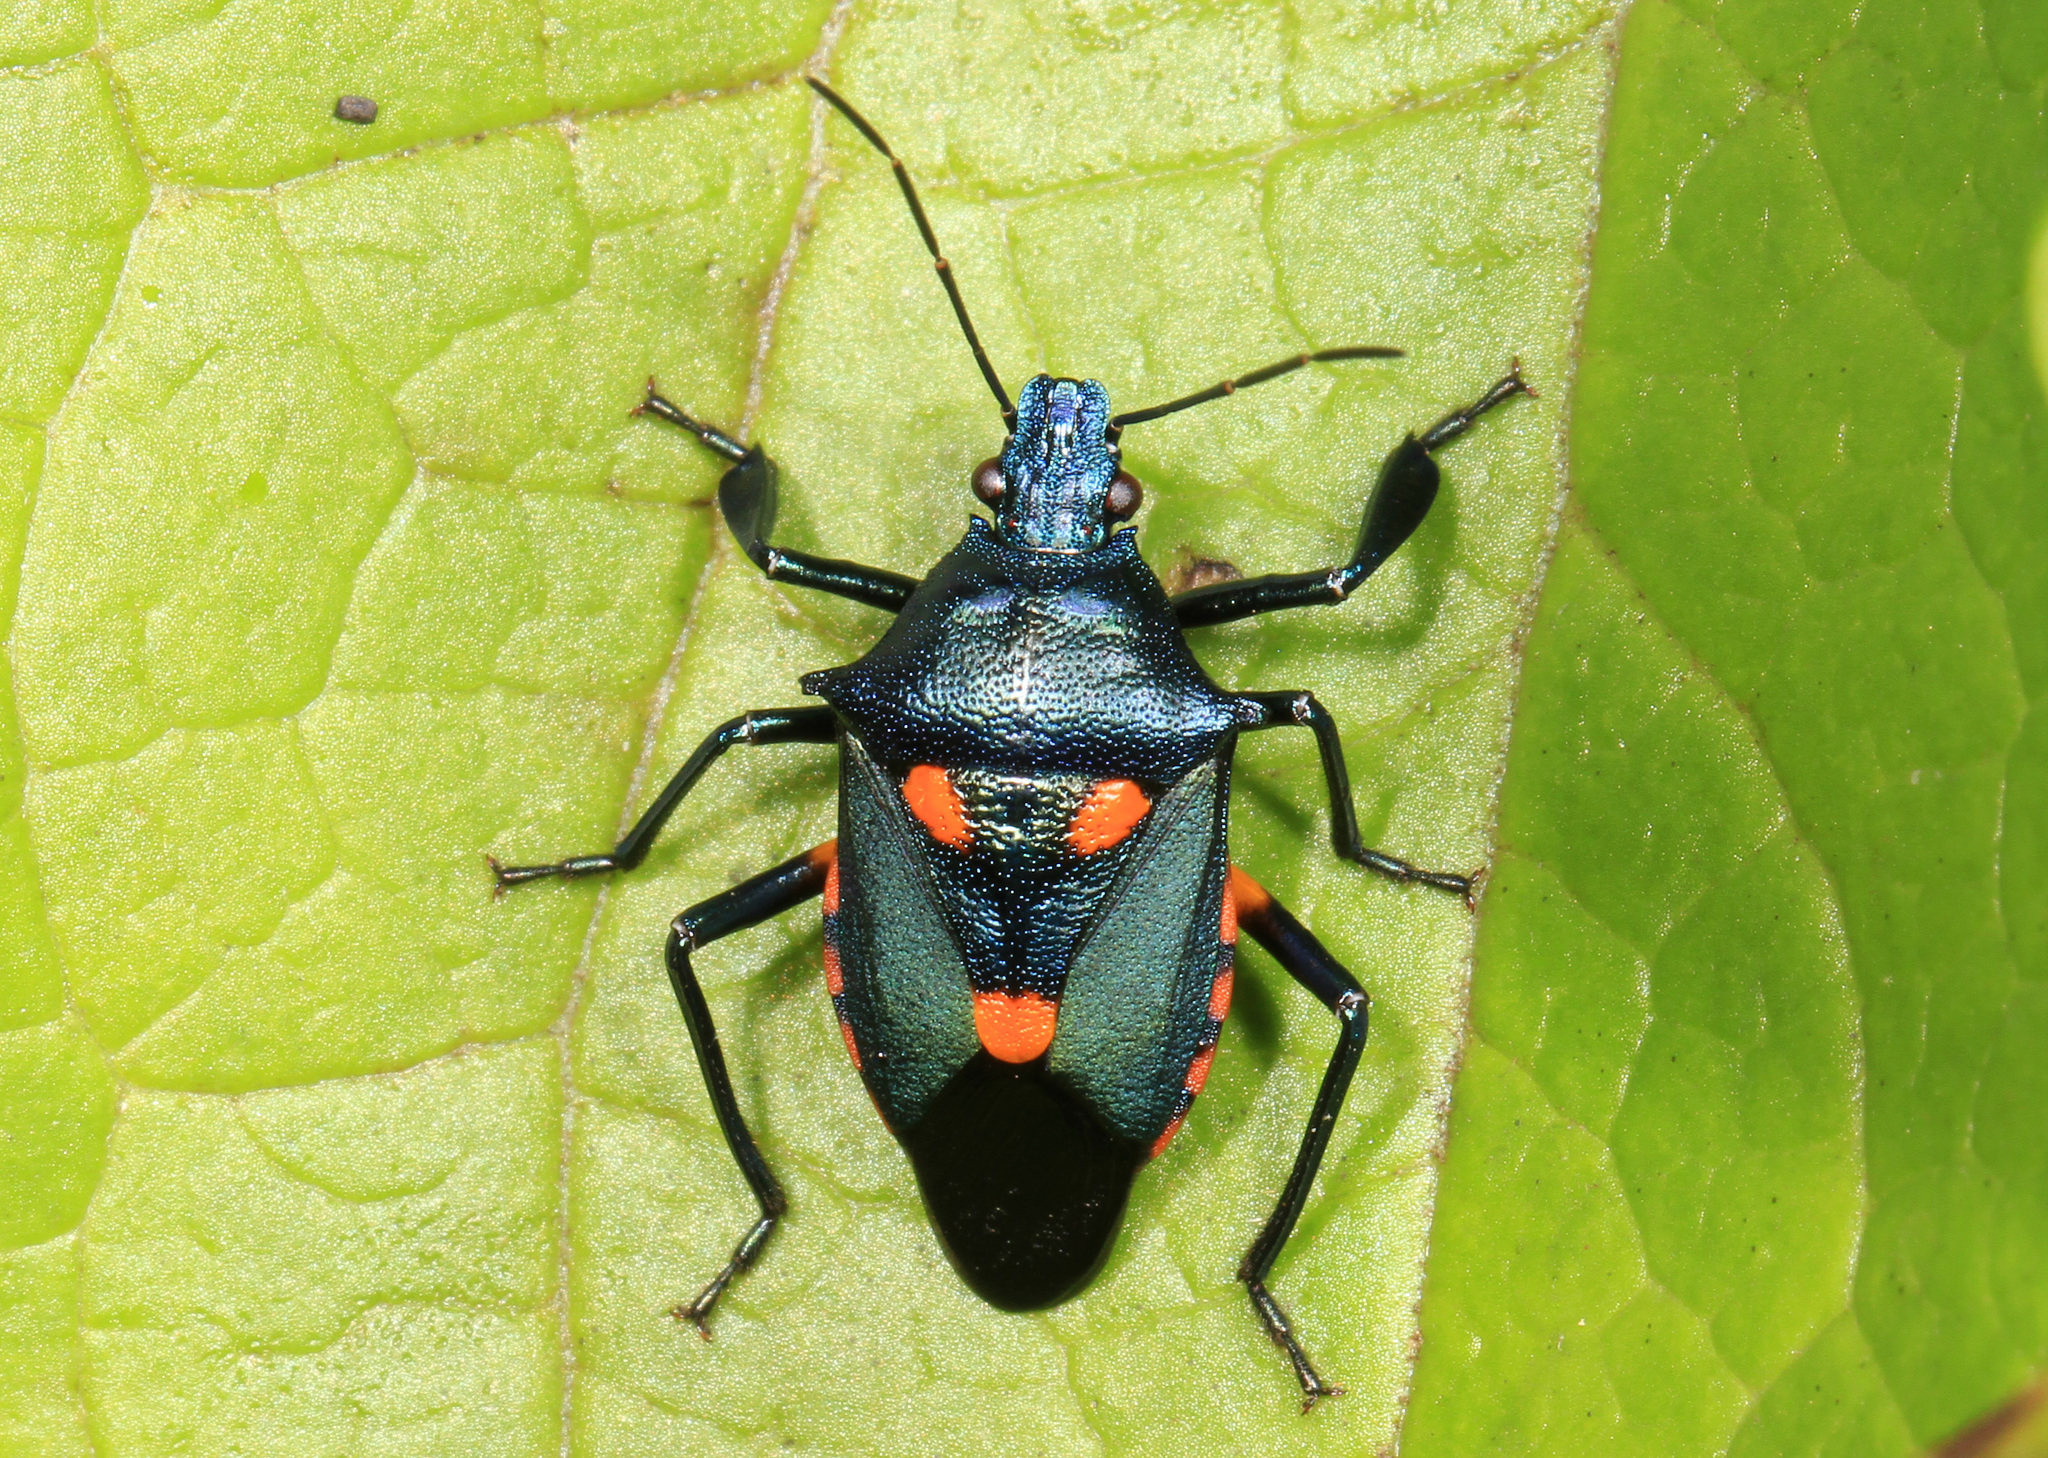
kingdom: Animalia
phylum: Arthropoda
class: Insecta
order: Hemiptera
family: Pentatomidae
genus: Euthyrhynchus
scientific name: Euthyrhynchus floridanus
